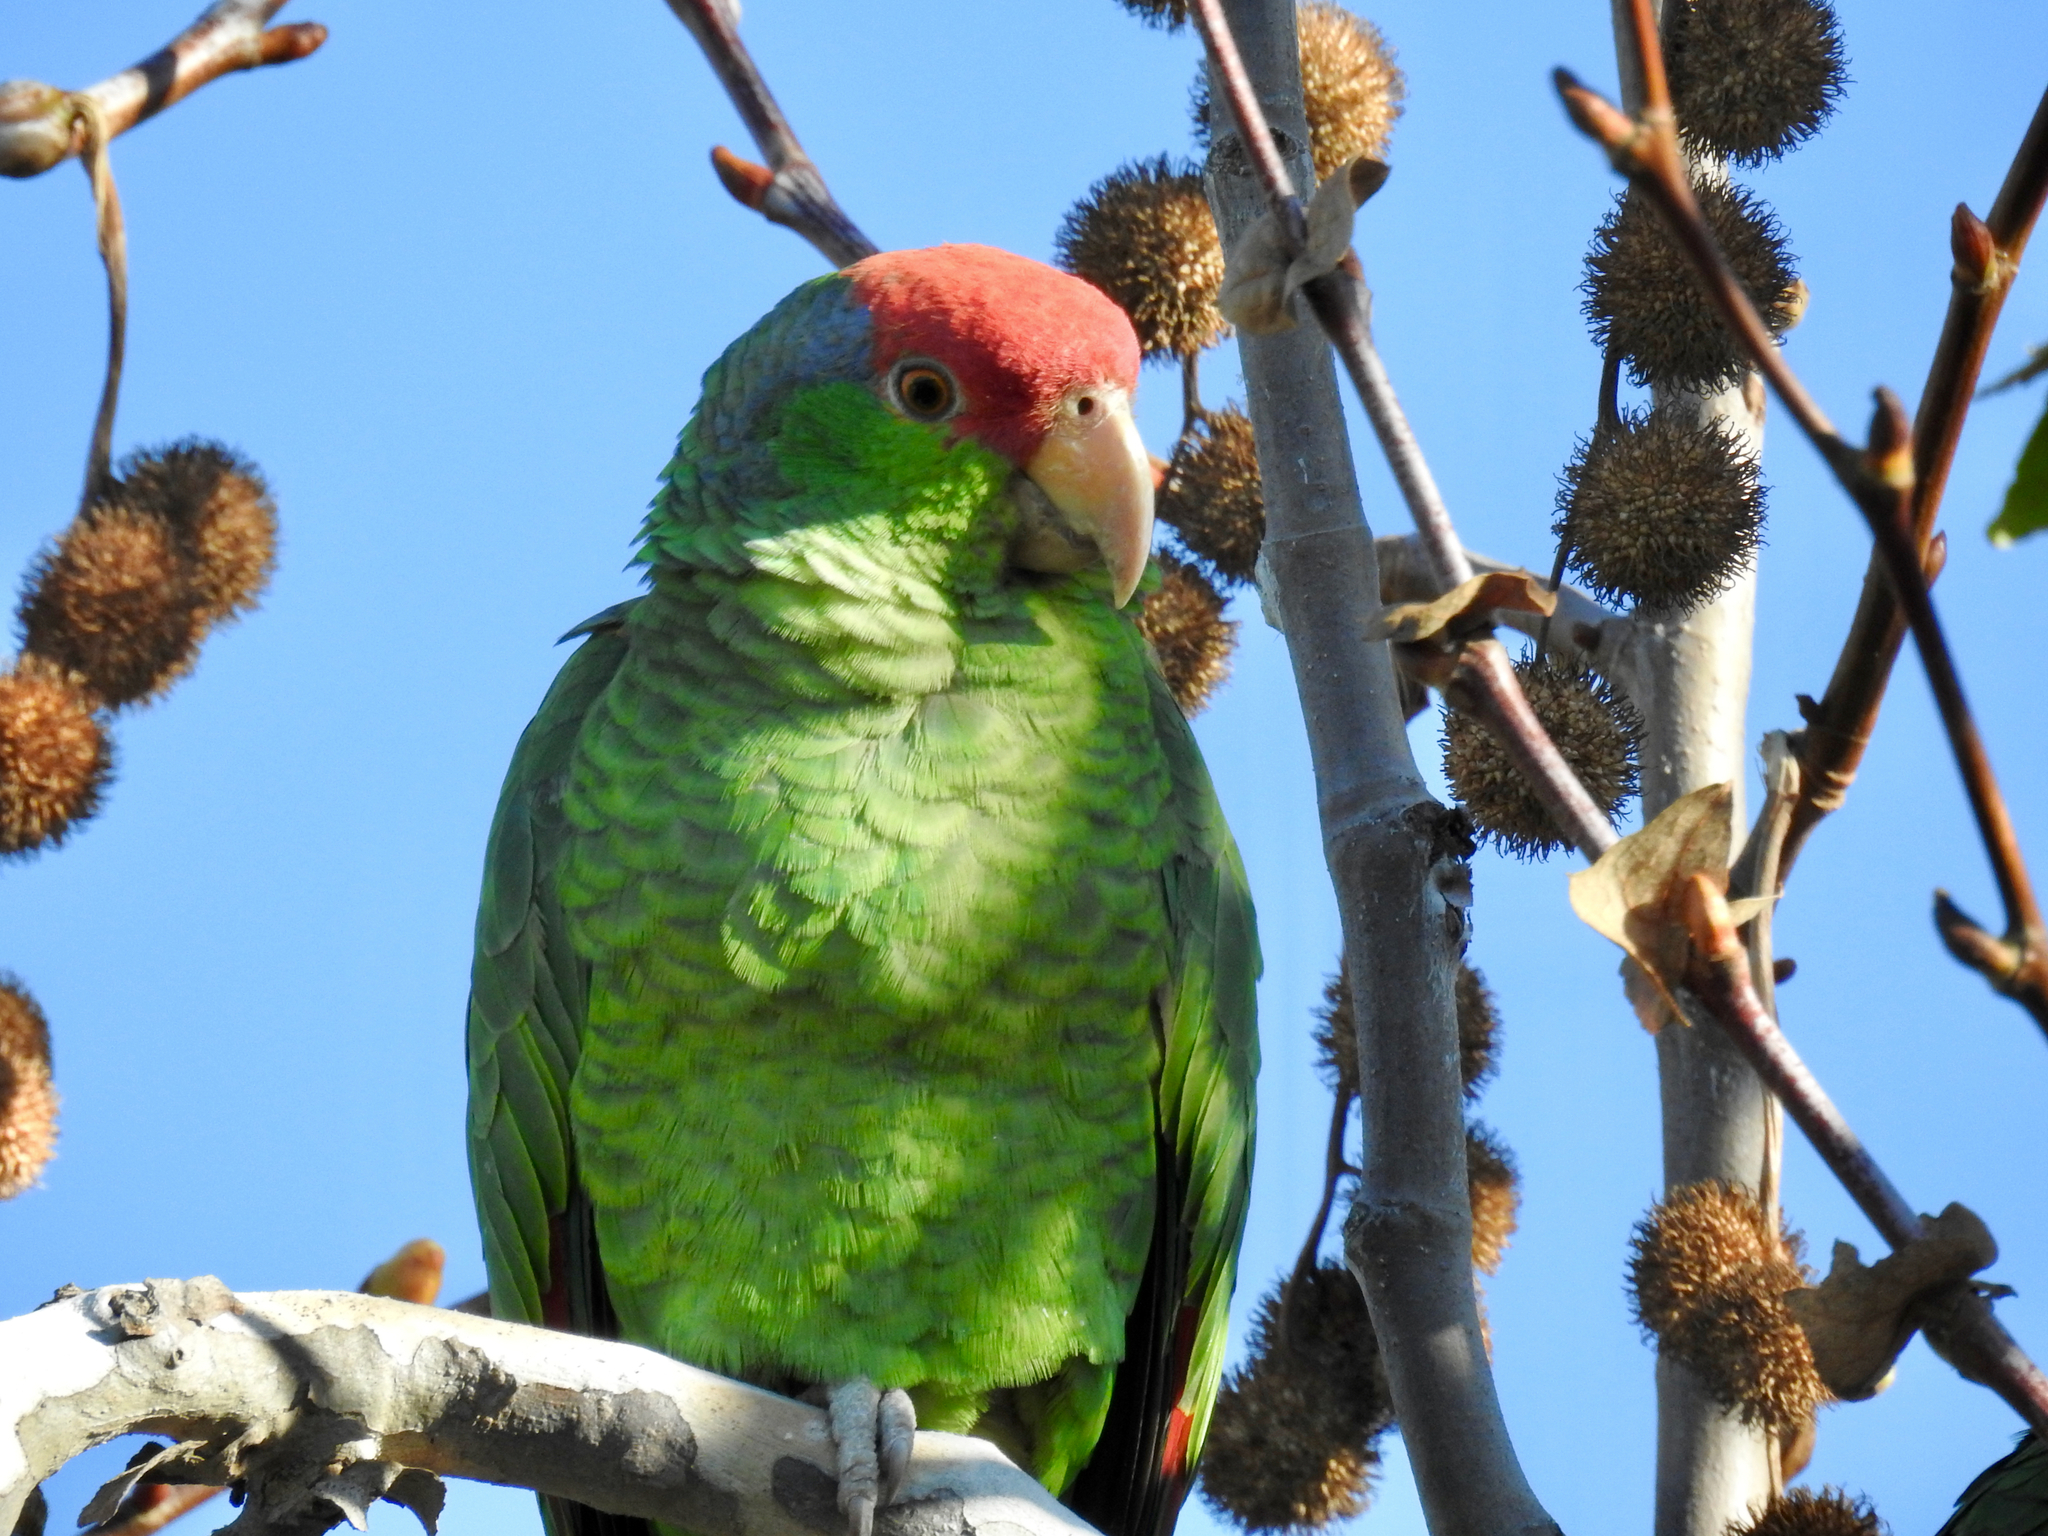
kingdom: Animalia
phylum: Chordata
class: Aves
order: Psittaciformes
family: Psittacidae
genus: Amazona
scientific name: Amazona viridigenalis
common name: Red-crowned amazon
